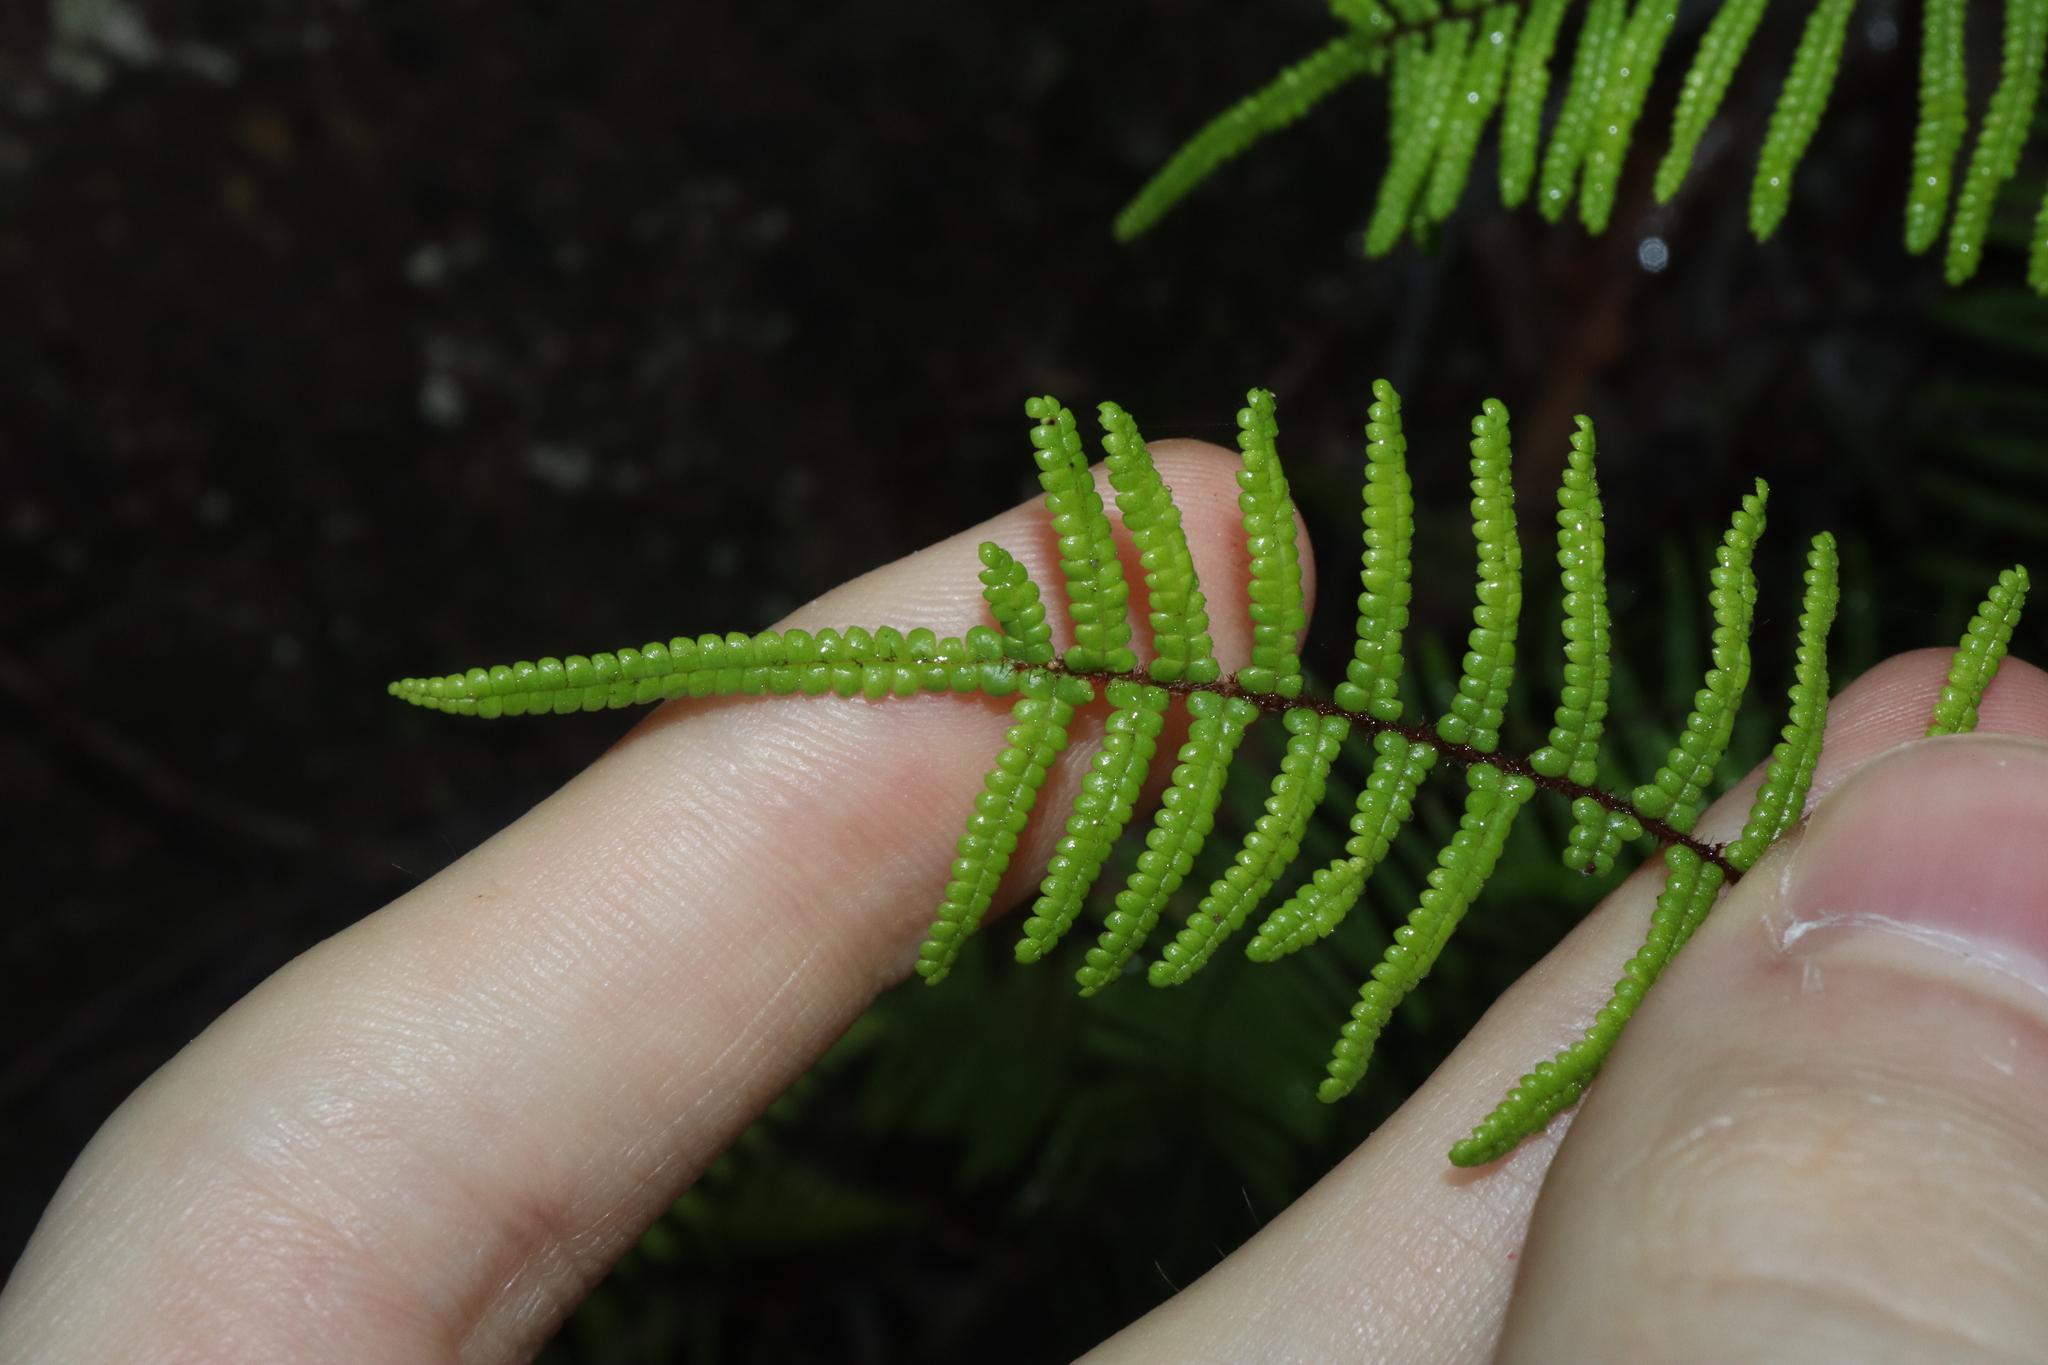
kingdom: Plantae
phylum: Tracheophyta
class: Polypodiopsida
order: Gleicheniales
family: Gleicheniaceae
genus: Gleichenia
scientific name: Gleichenia microphylla
